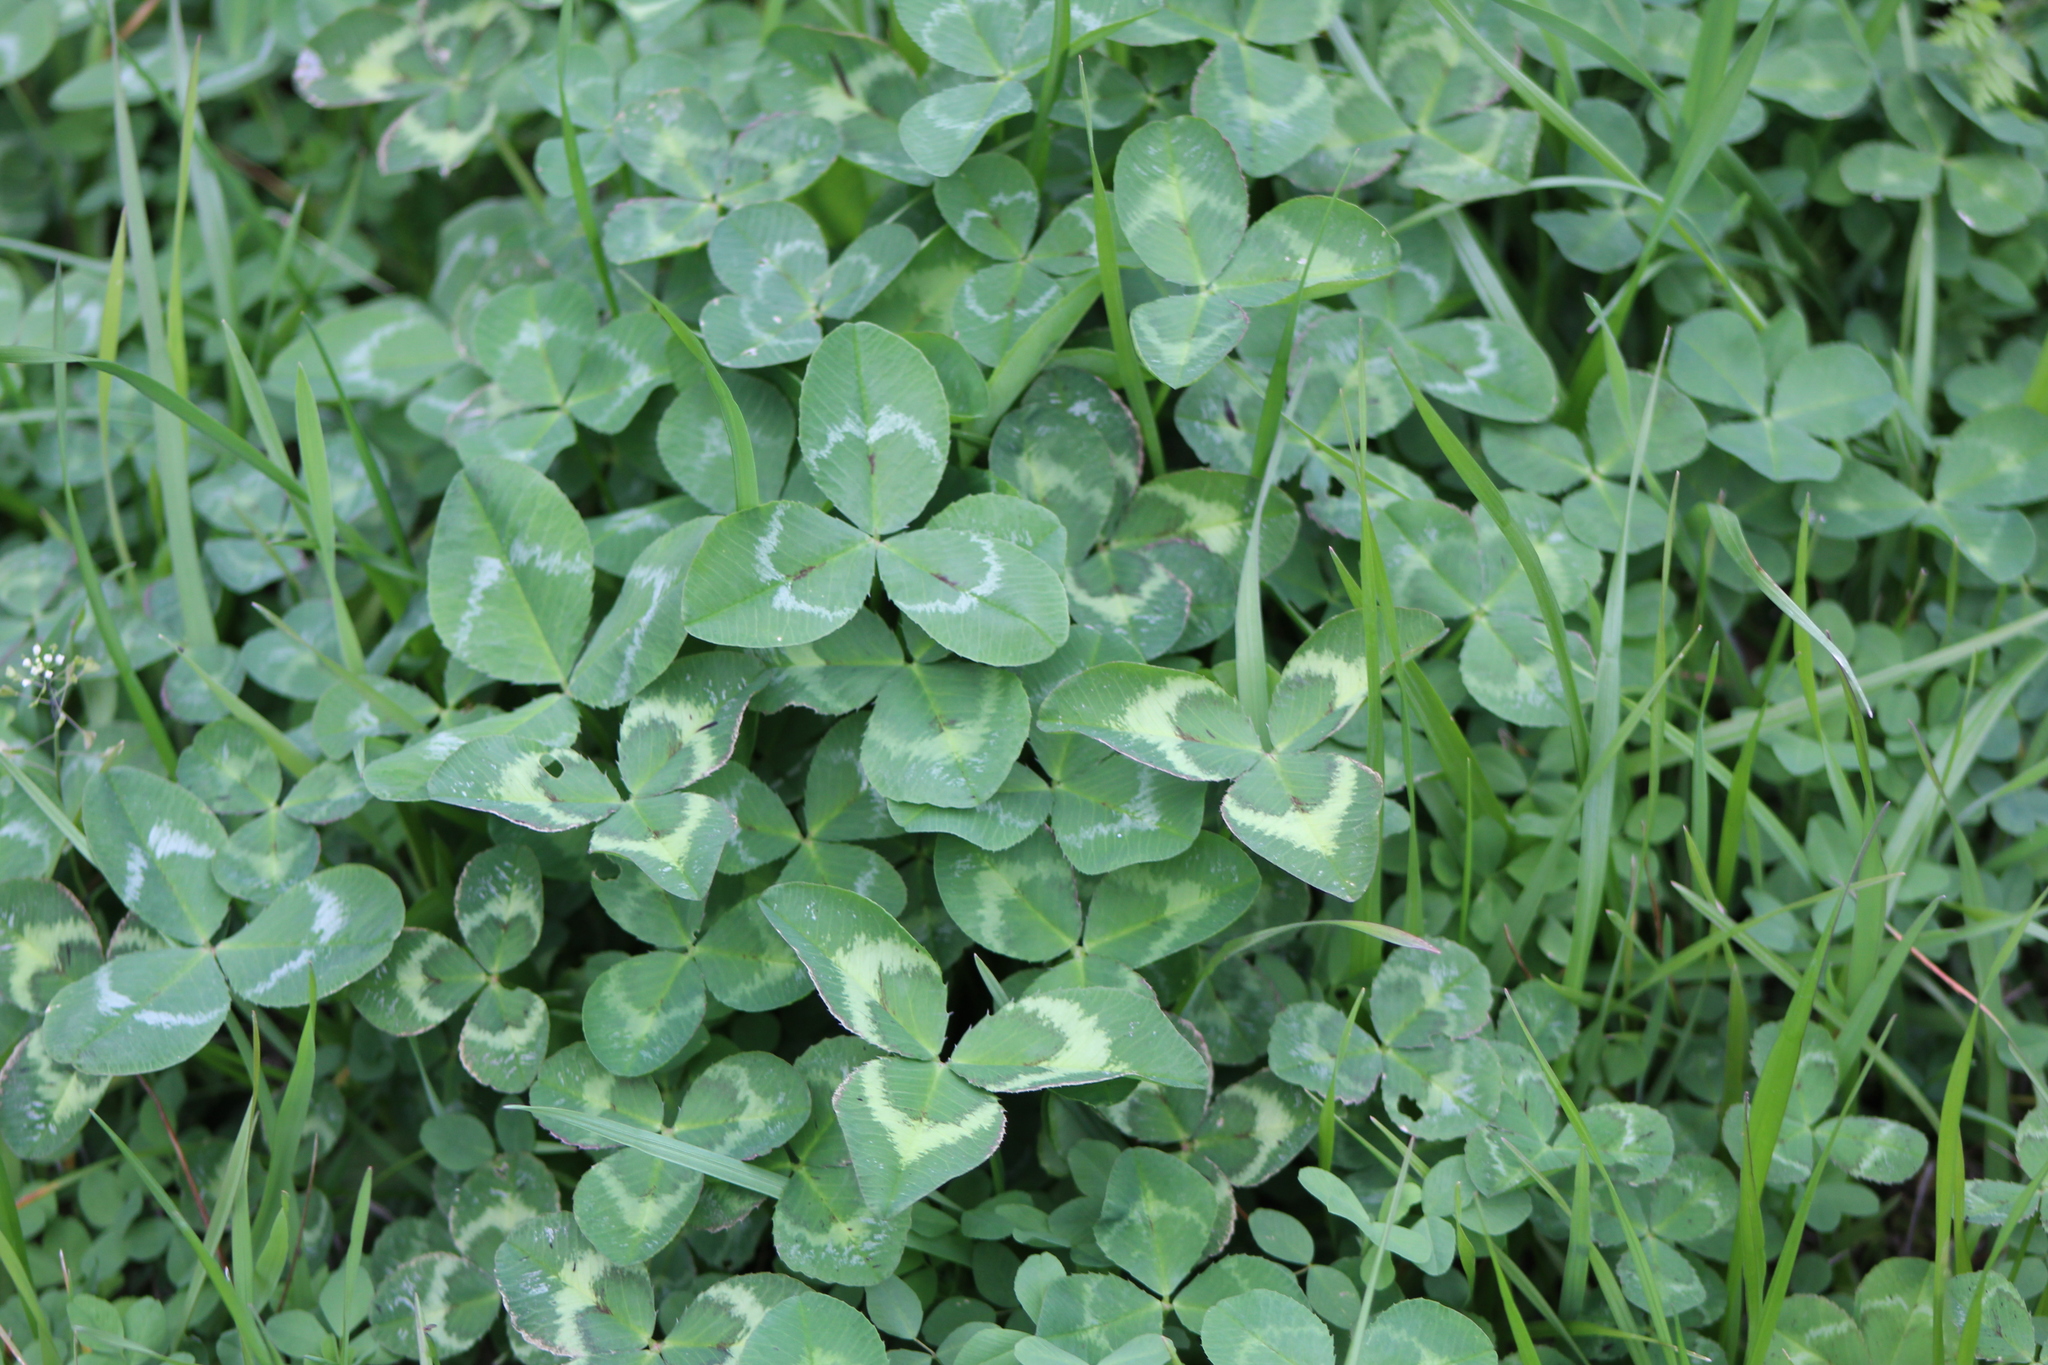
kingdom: Plantae
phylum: Tracheophyta
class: Magnoliopsida
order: Fabales
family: Fabaceae
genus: Trifolium
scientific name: Trifolium repens
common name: White clover
